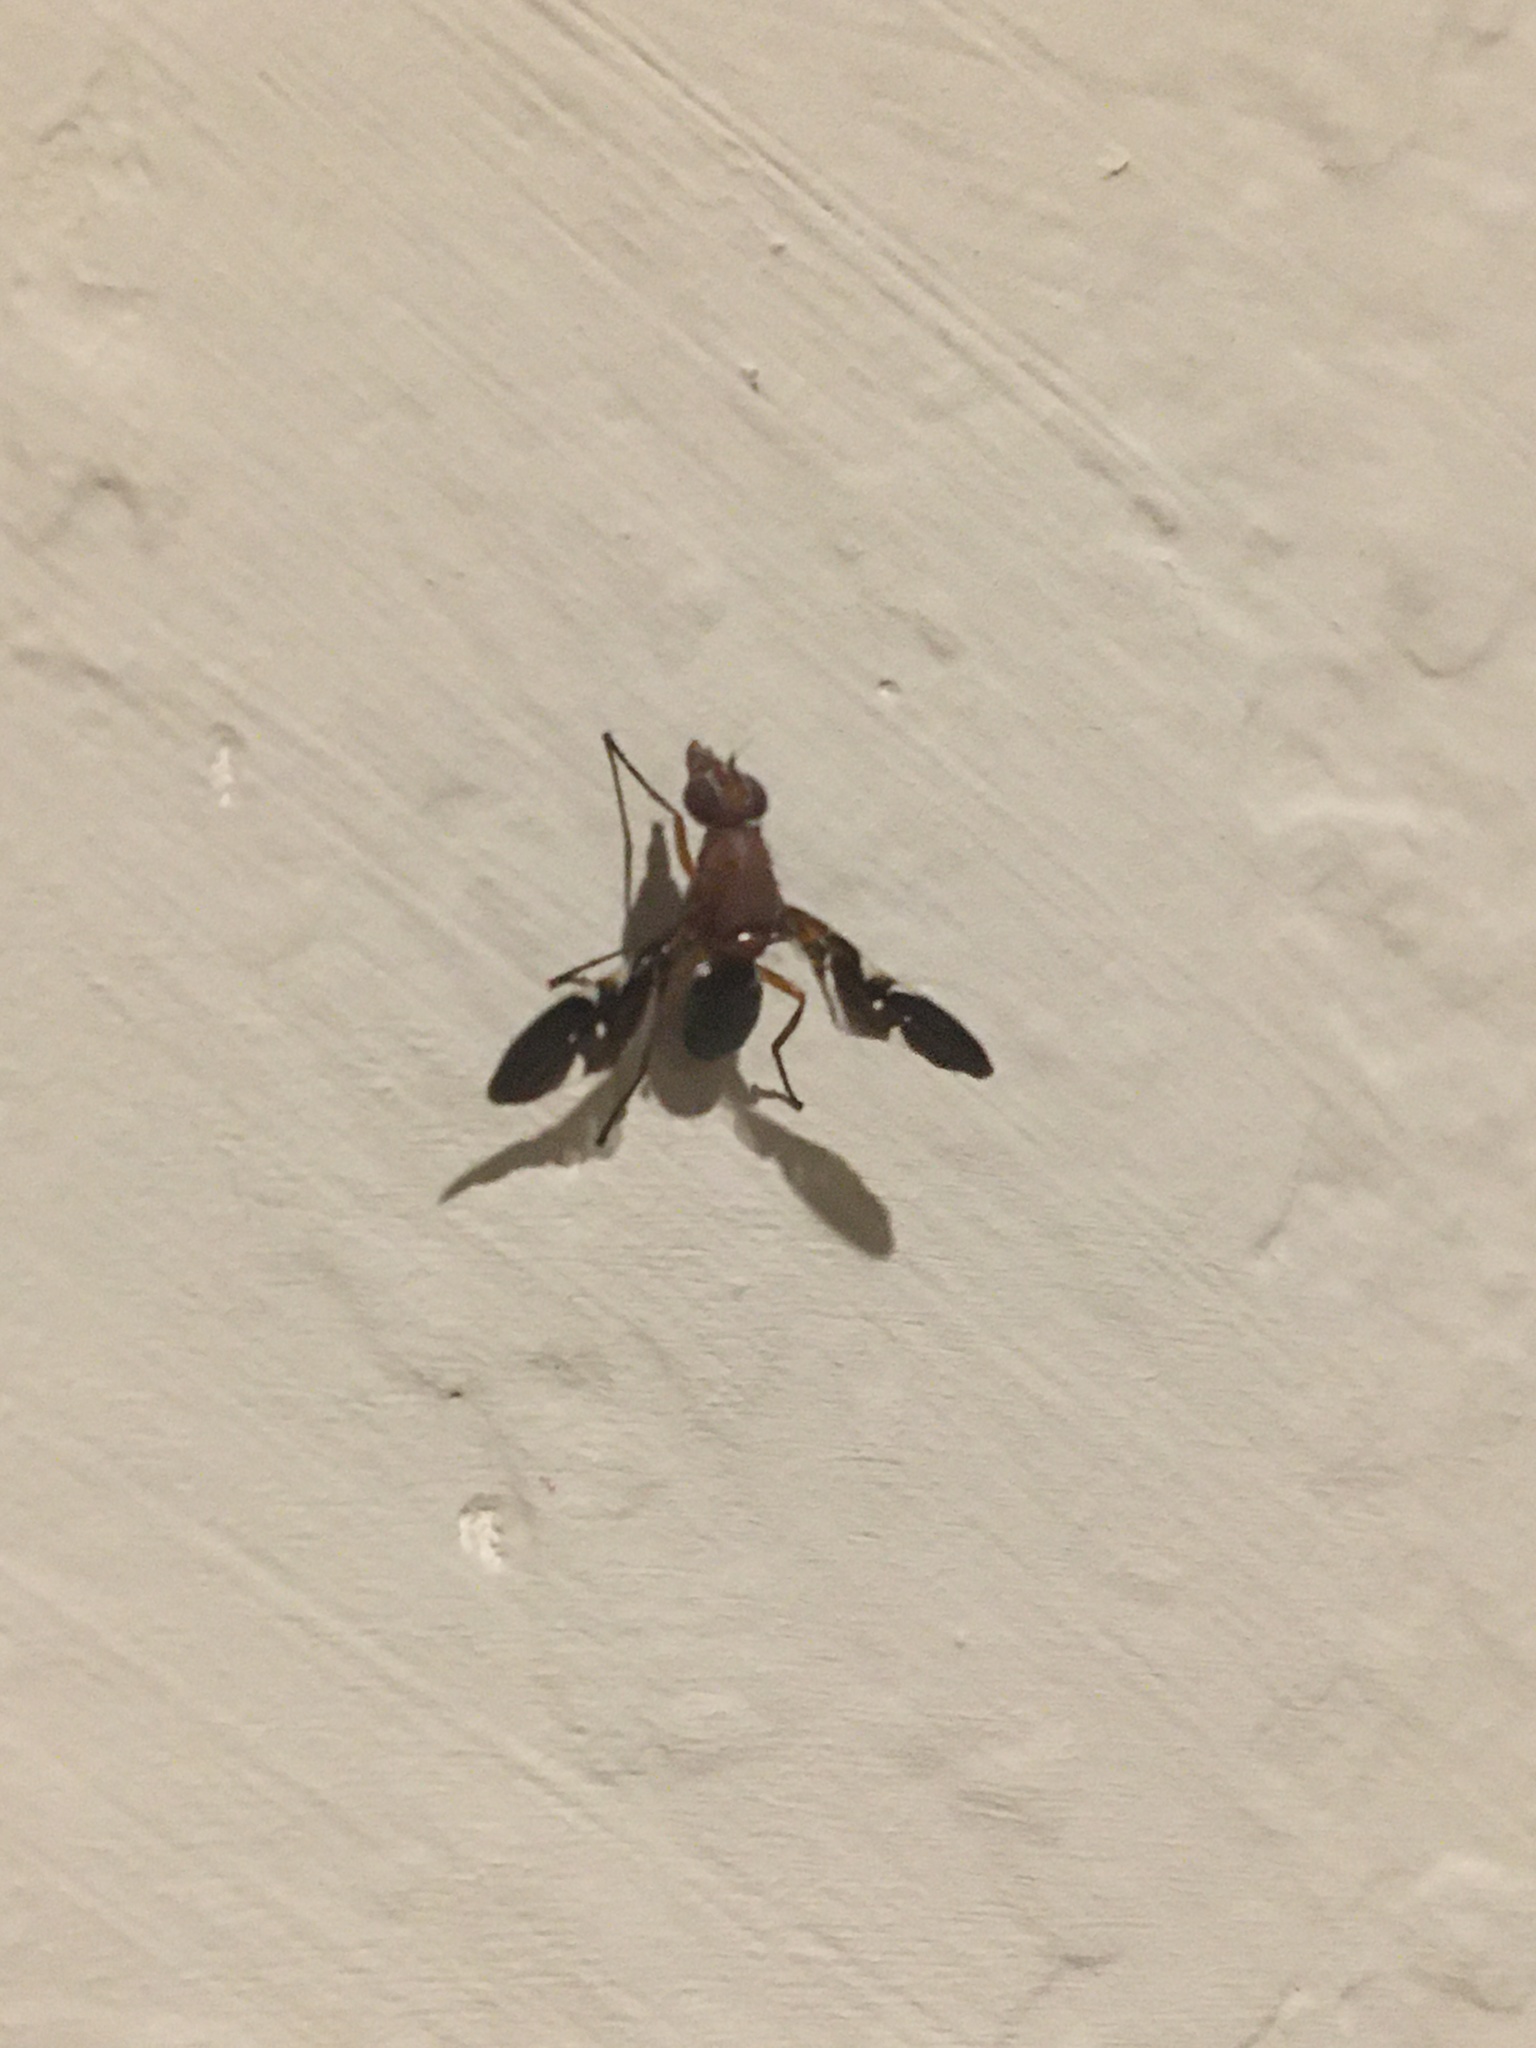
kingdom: Animalia
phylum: Arthropoda
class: Insecta
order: Diptera
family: Ulidiidae
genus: Delphinia
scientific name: Delphinia picta
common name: Common picture-winged fly
